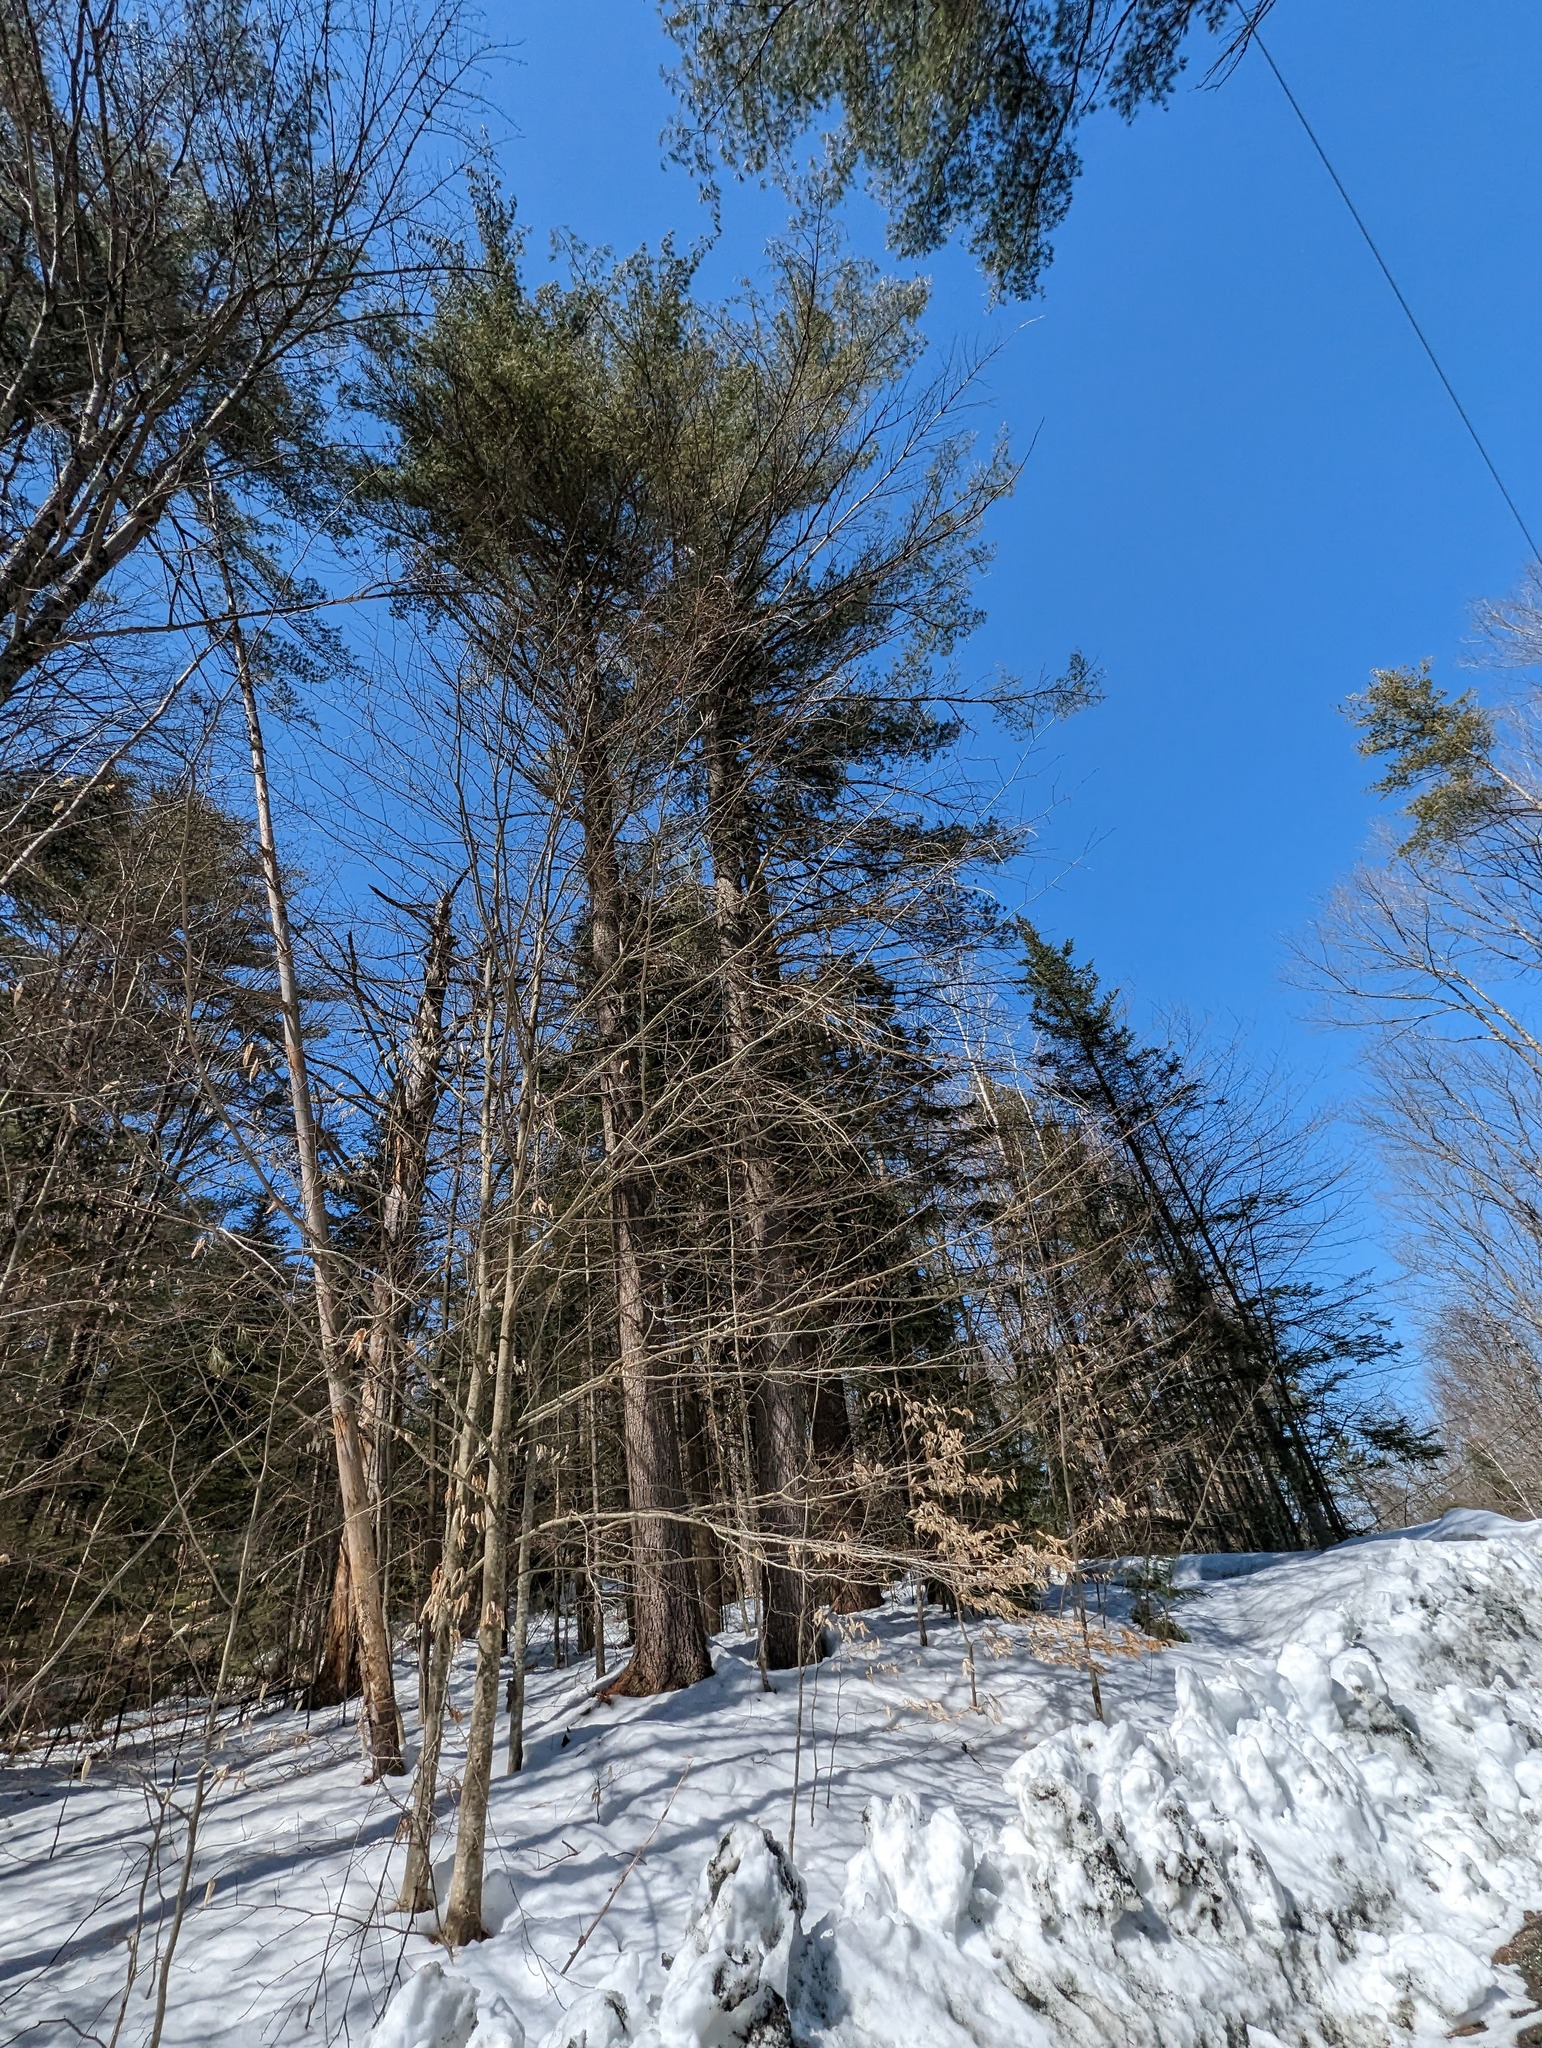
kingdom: Plantae
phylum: Tracheophyta
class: Pinopsida
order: Pinales
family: Pinaceae
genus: Pinus
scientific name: Pinus strobus
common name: Weymouth pine
